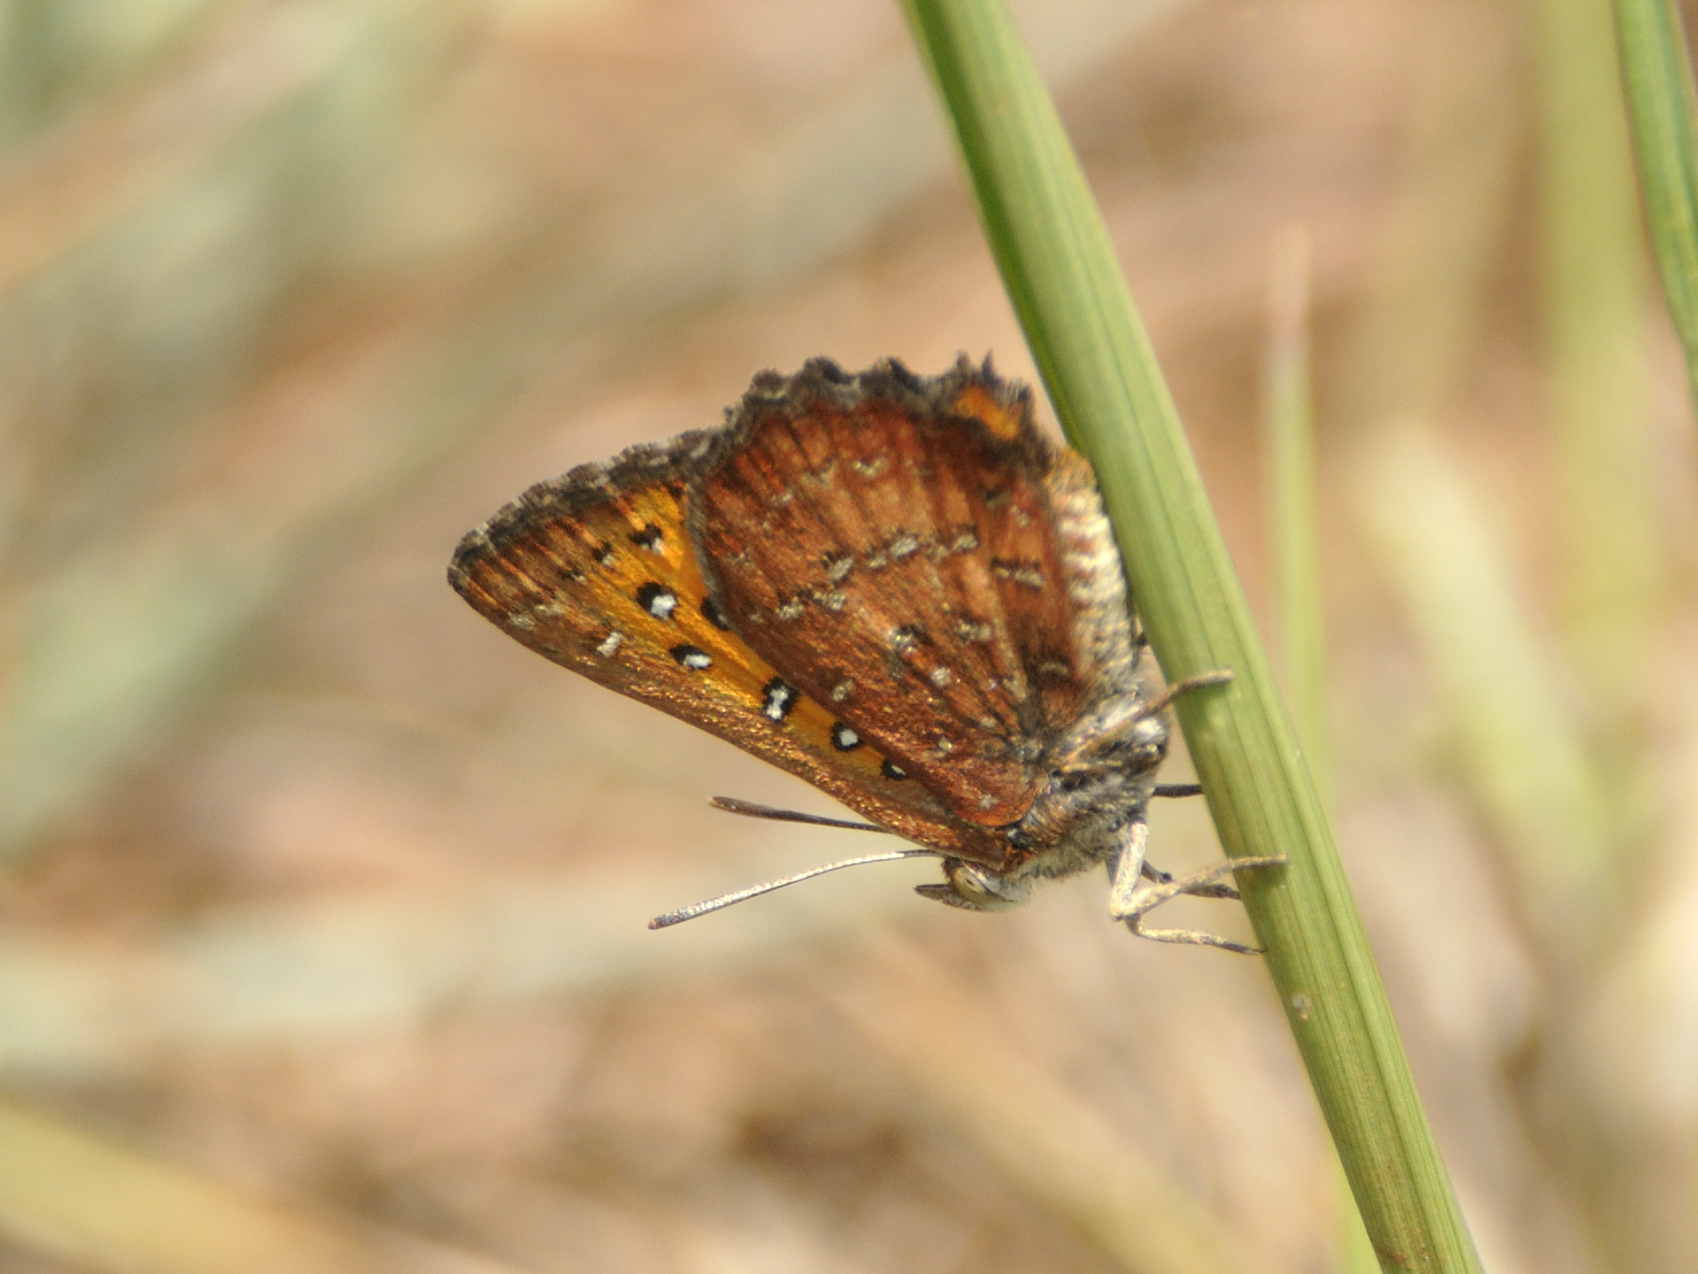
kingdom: Animalia
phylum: Arthropoda
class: Insecta
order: Lepidoptera
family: Lycaenidae
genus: Aloeides
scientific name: Aloeides swanepoeli
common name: Swanepoel's copper
